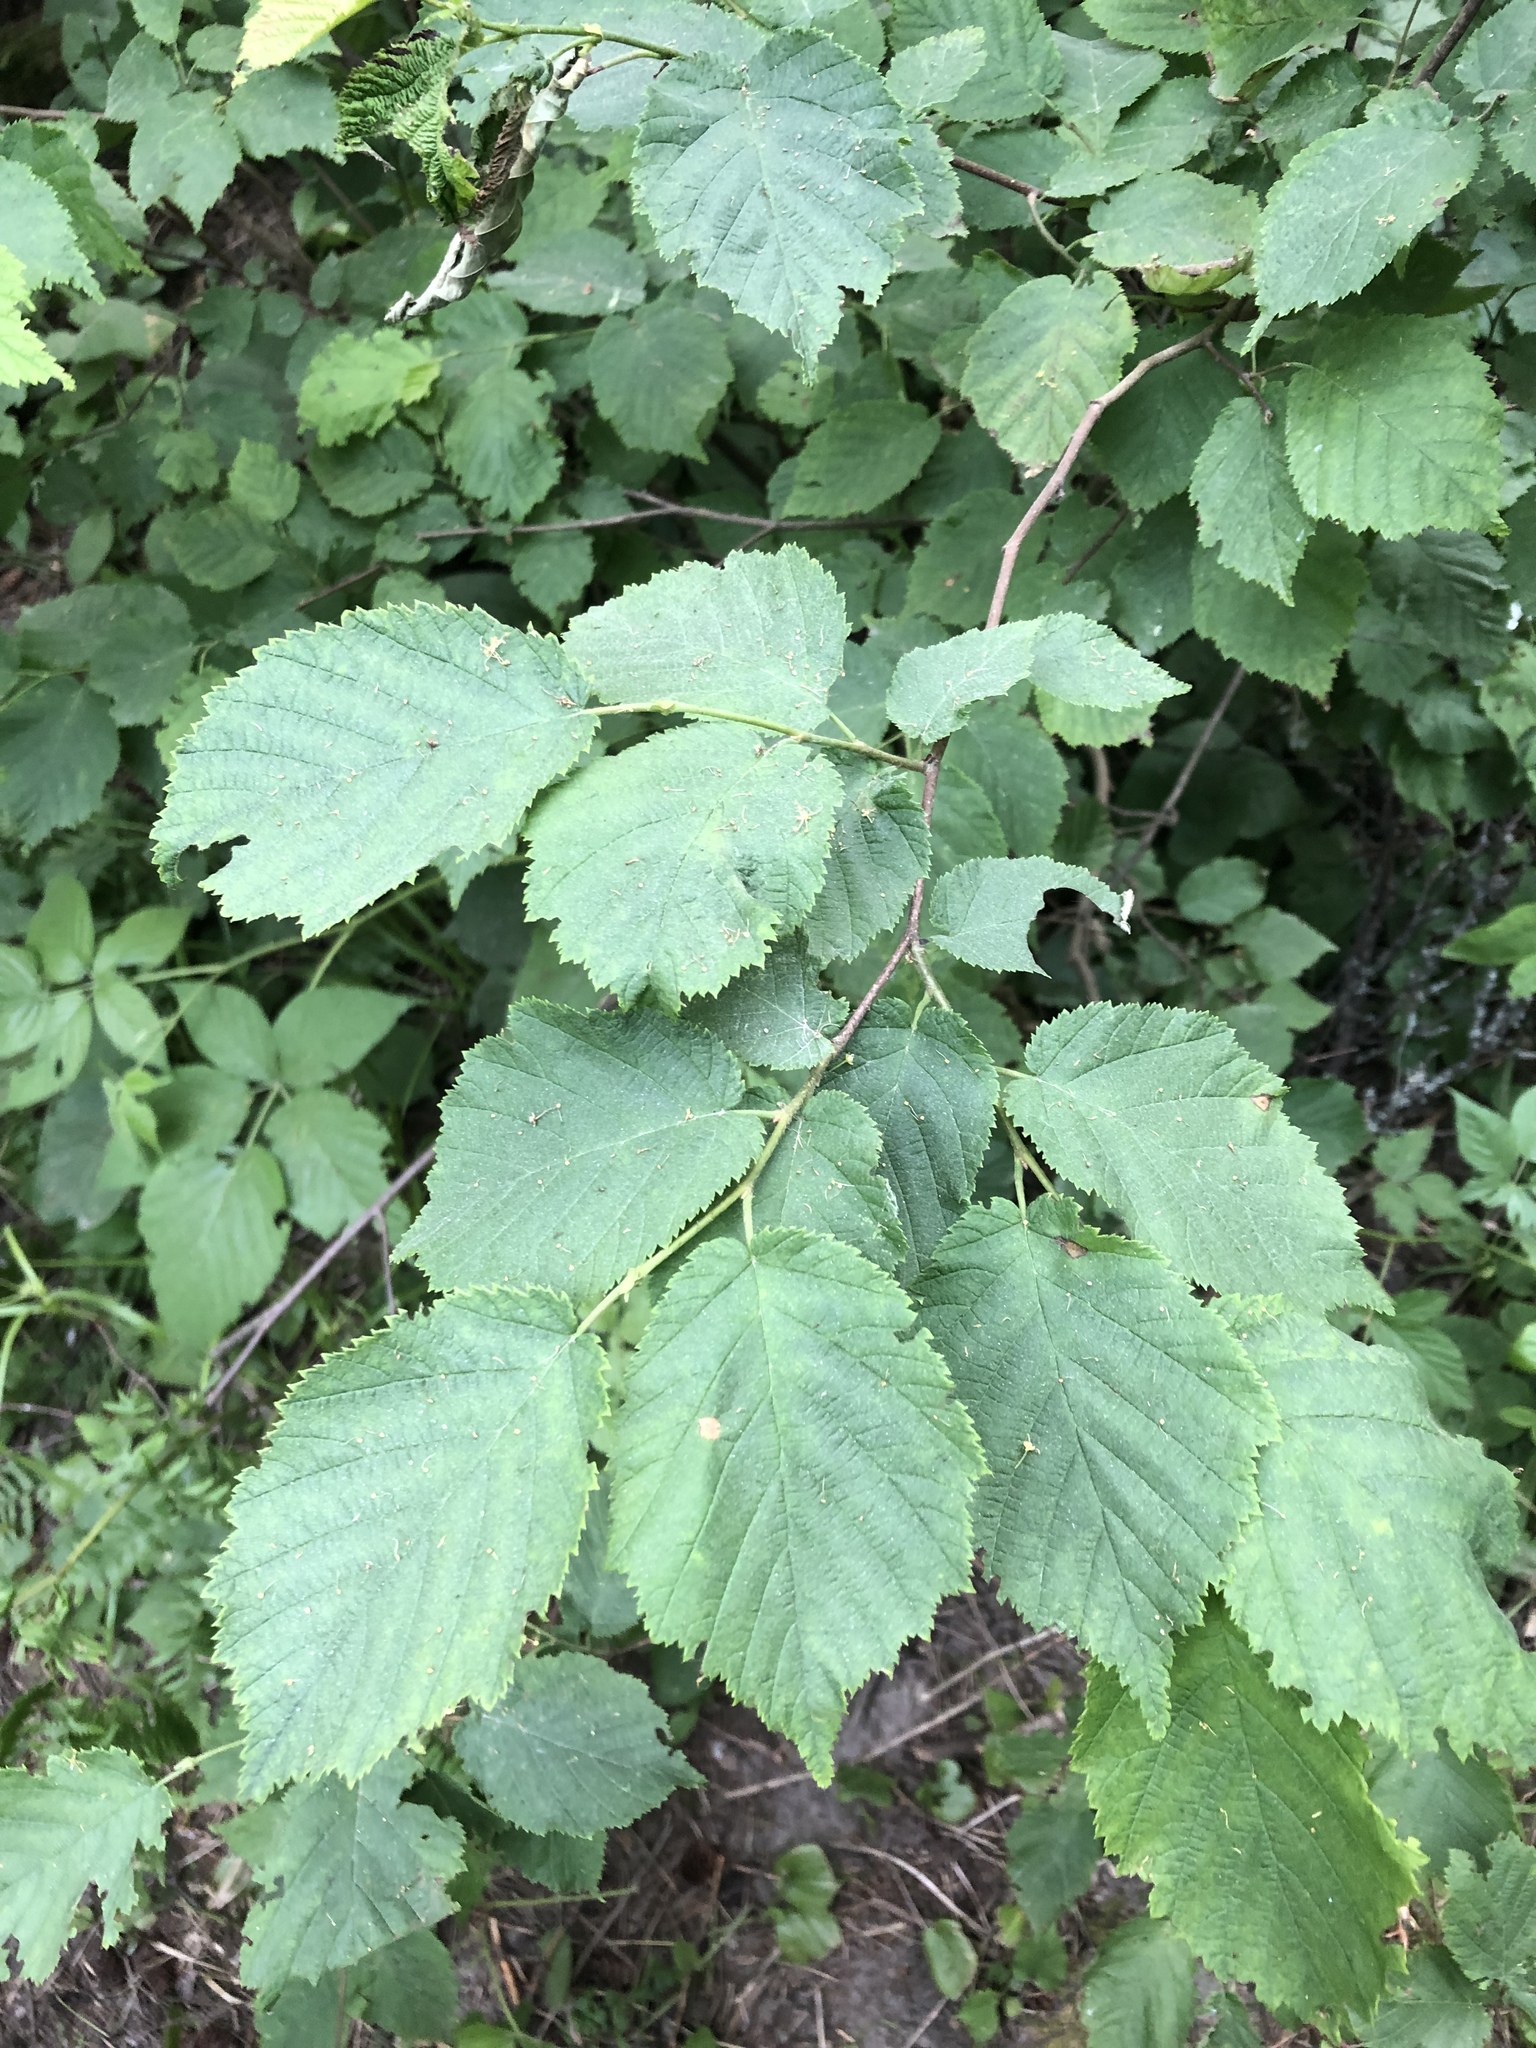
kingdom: Plantae
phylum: Tracheophyta
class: Magnoliopsida
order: Fagales
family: Betulaceae
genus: Corylus
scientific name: Corylus cornuta
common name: Beaked hazel
